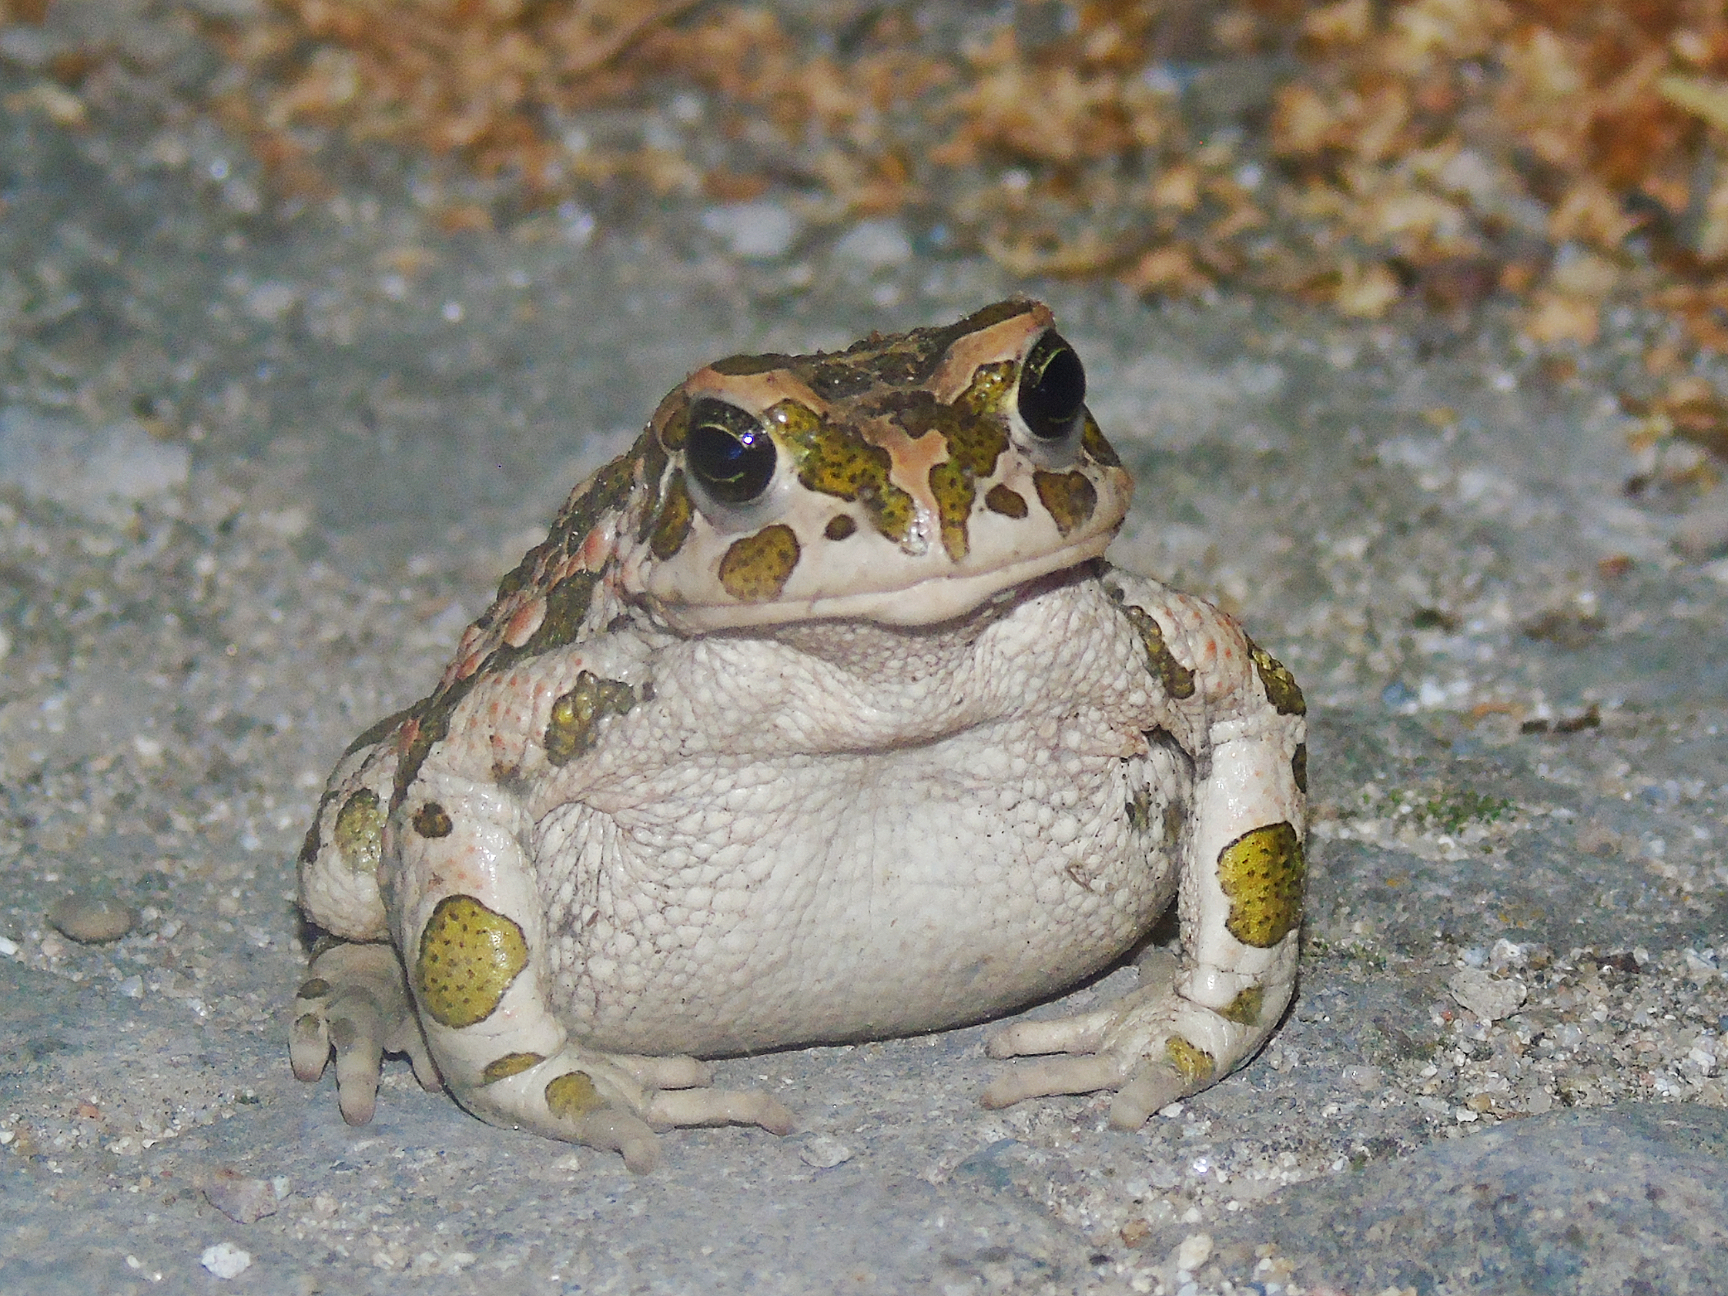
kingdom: Animalia
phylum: Chordata
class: Amphibia
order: Anura
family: Bufonidae
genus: Bufotes
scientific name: Bufotes viridis
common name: European green toad
